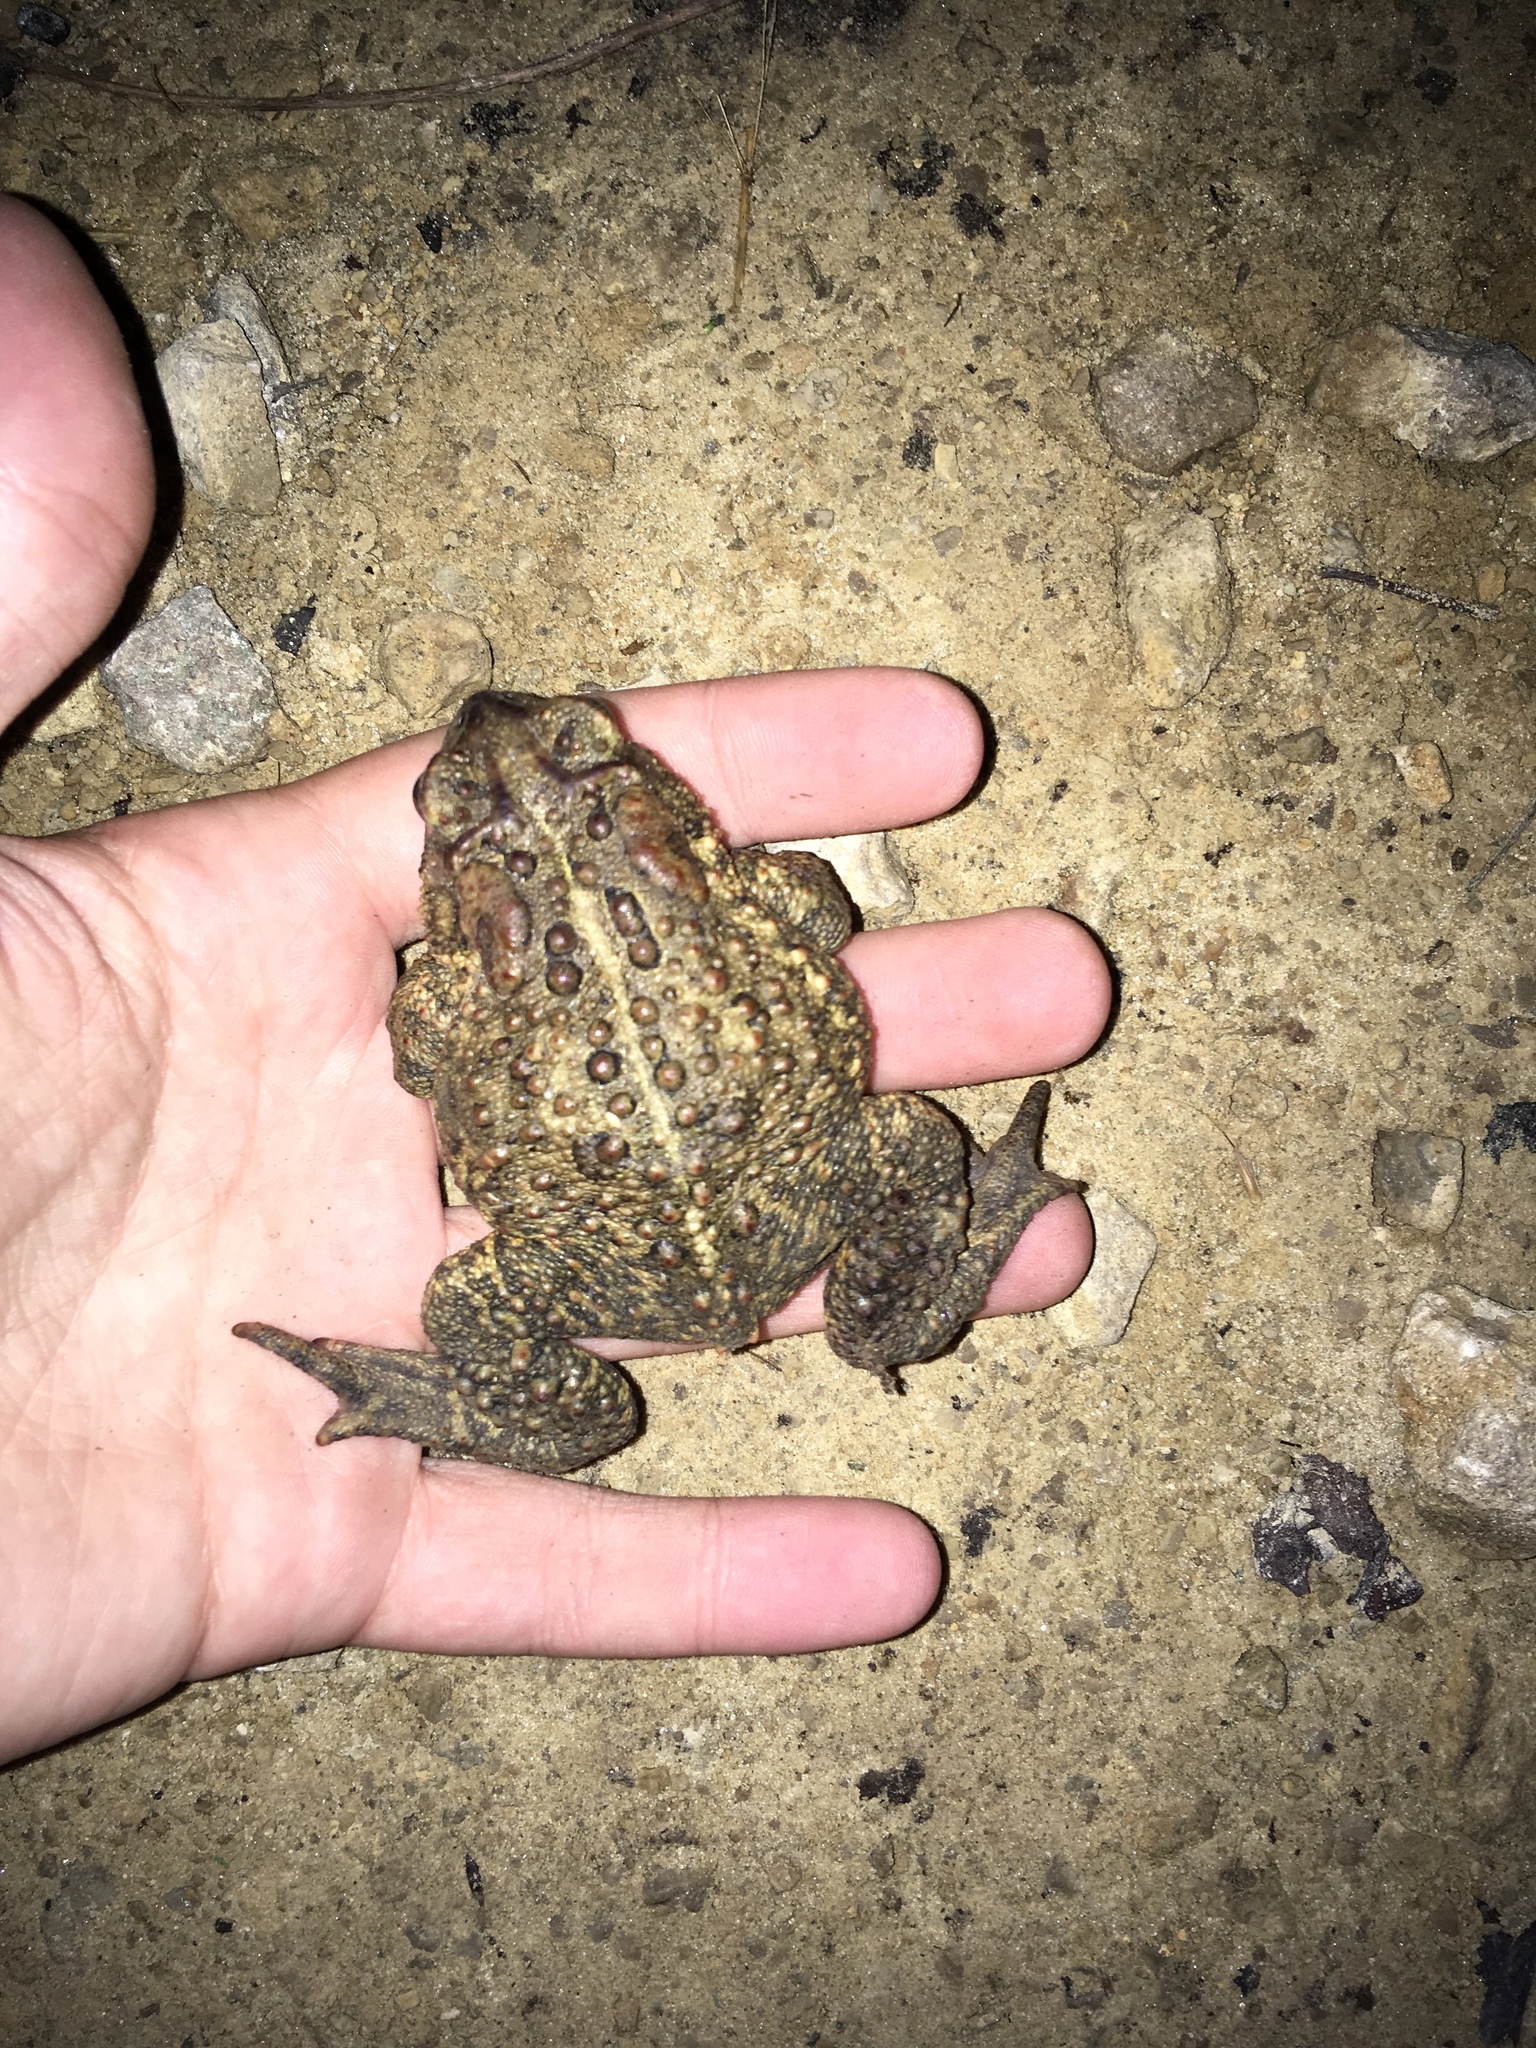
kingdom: Animalia
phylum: Chordata
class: Amphibia
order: Anura
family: Bufonidae
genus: Anaxyrus
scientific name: Anaxyrus americanus
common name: American toad
